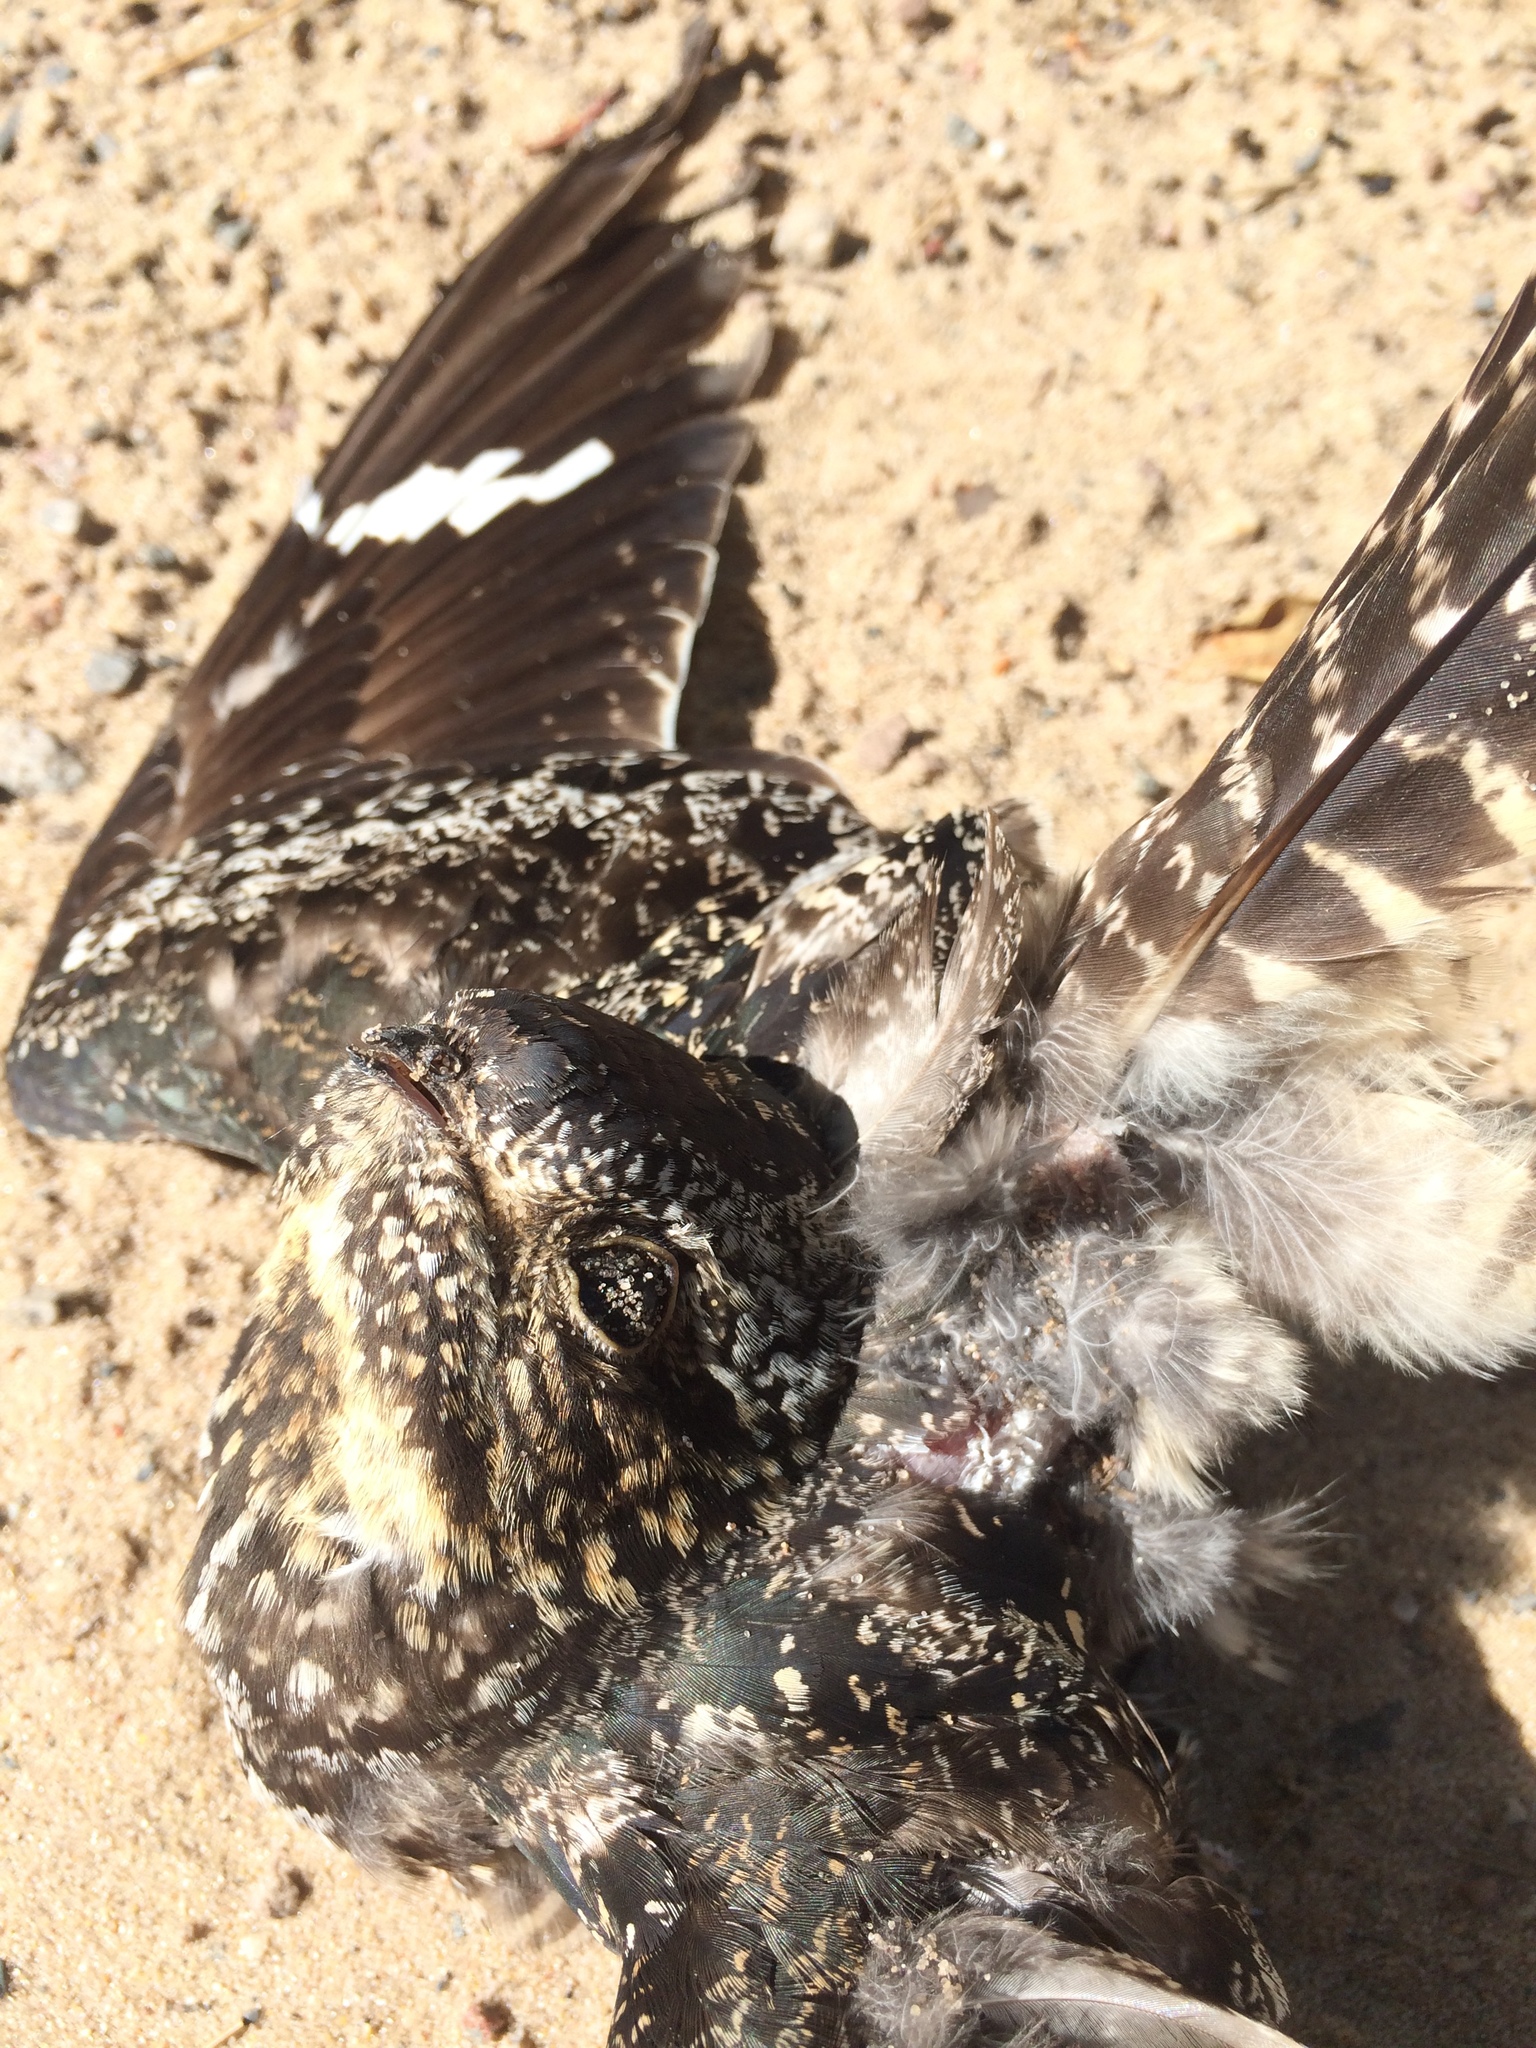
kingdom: Animalia
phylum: Chordata
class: Aves
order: Caprimulgiformes
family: Caprimulgidae
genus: Chordeiles
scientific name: Chordeiles minor
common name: Common nighthawk
